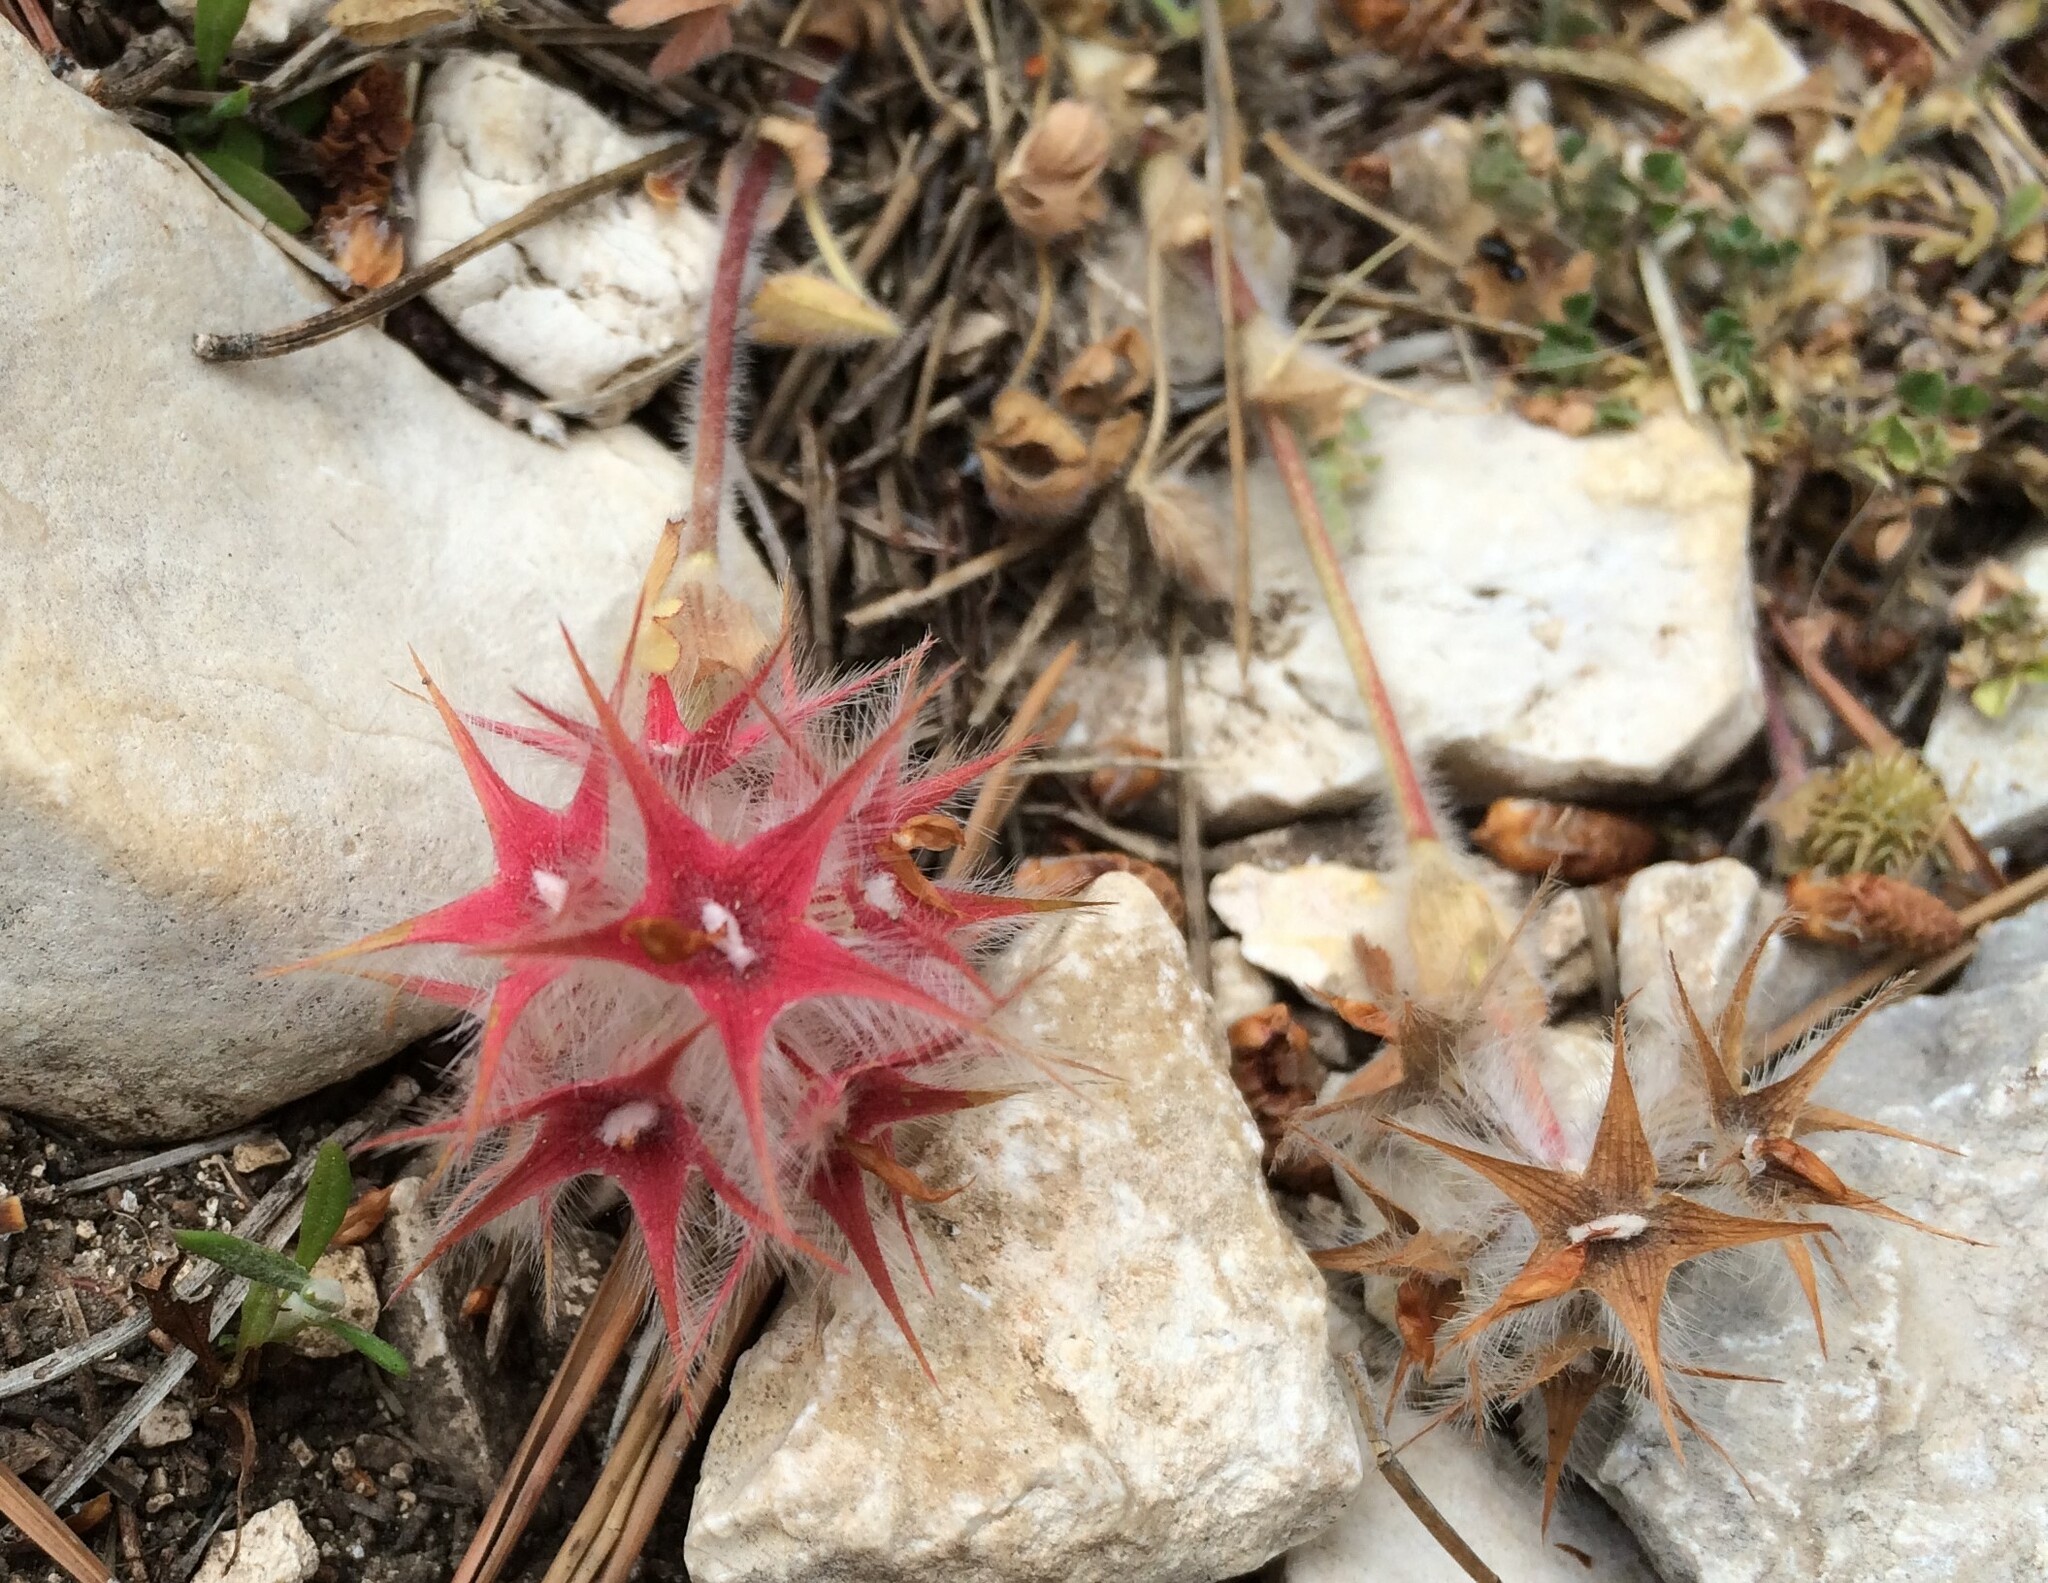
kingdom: Plantae
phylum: Tracheophyta
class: Magnoliopsida
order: Fabales
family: Fabaceae
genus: Trifolium
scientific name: Trifolium stellatum
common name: Starry clover
